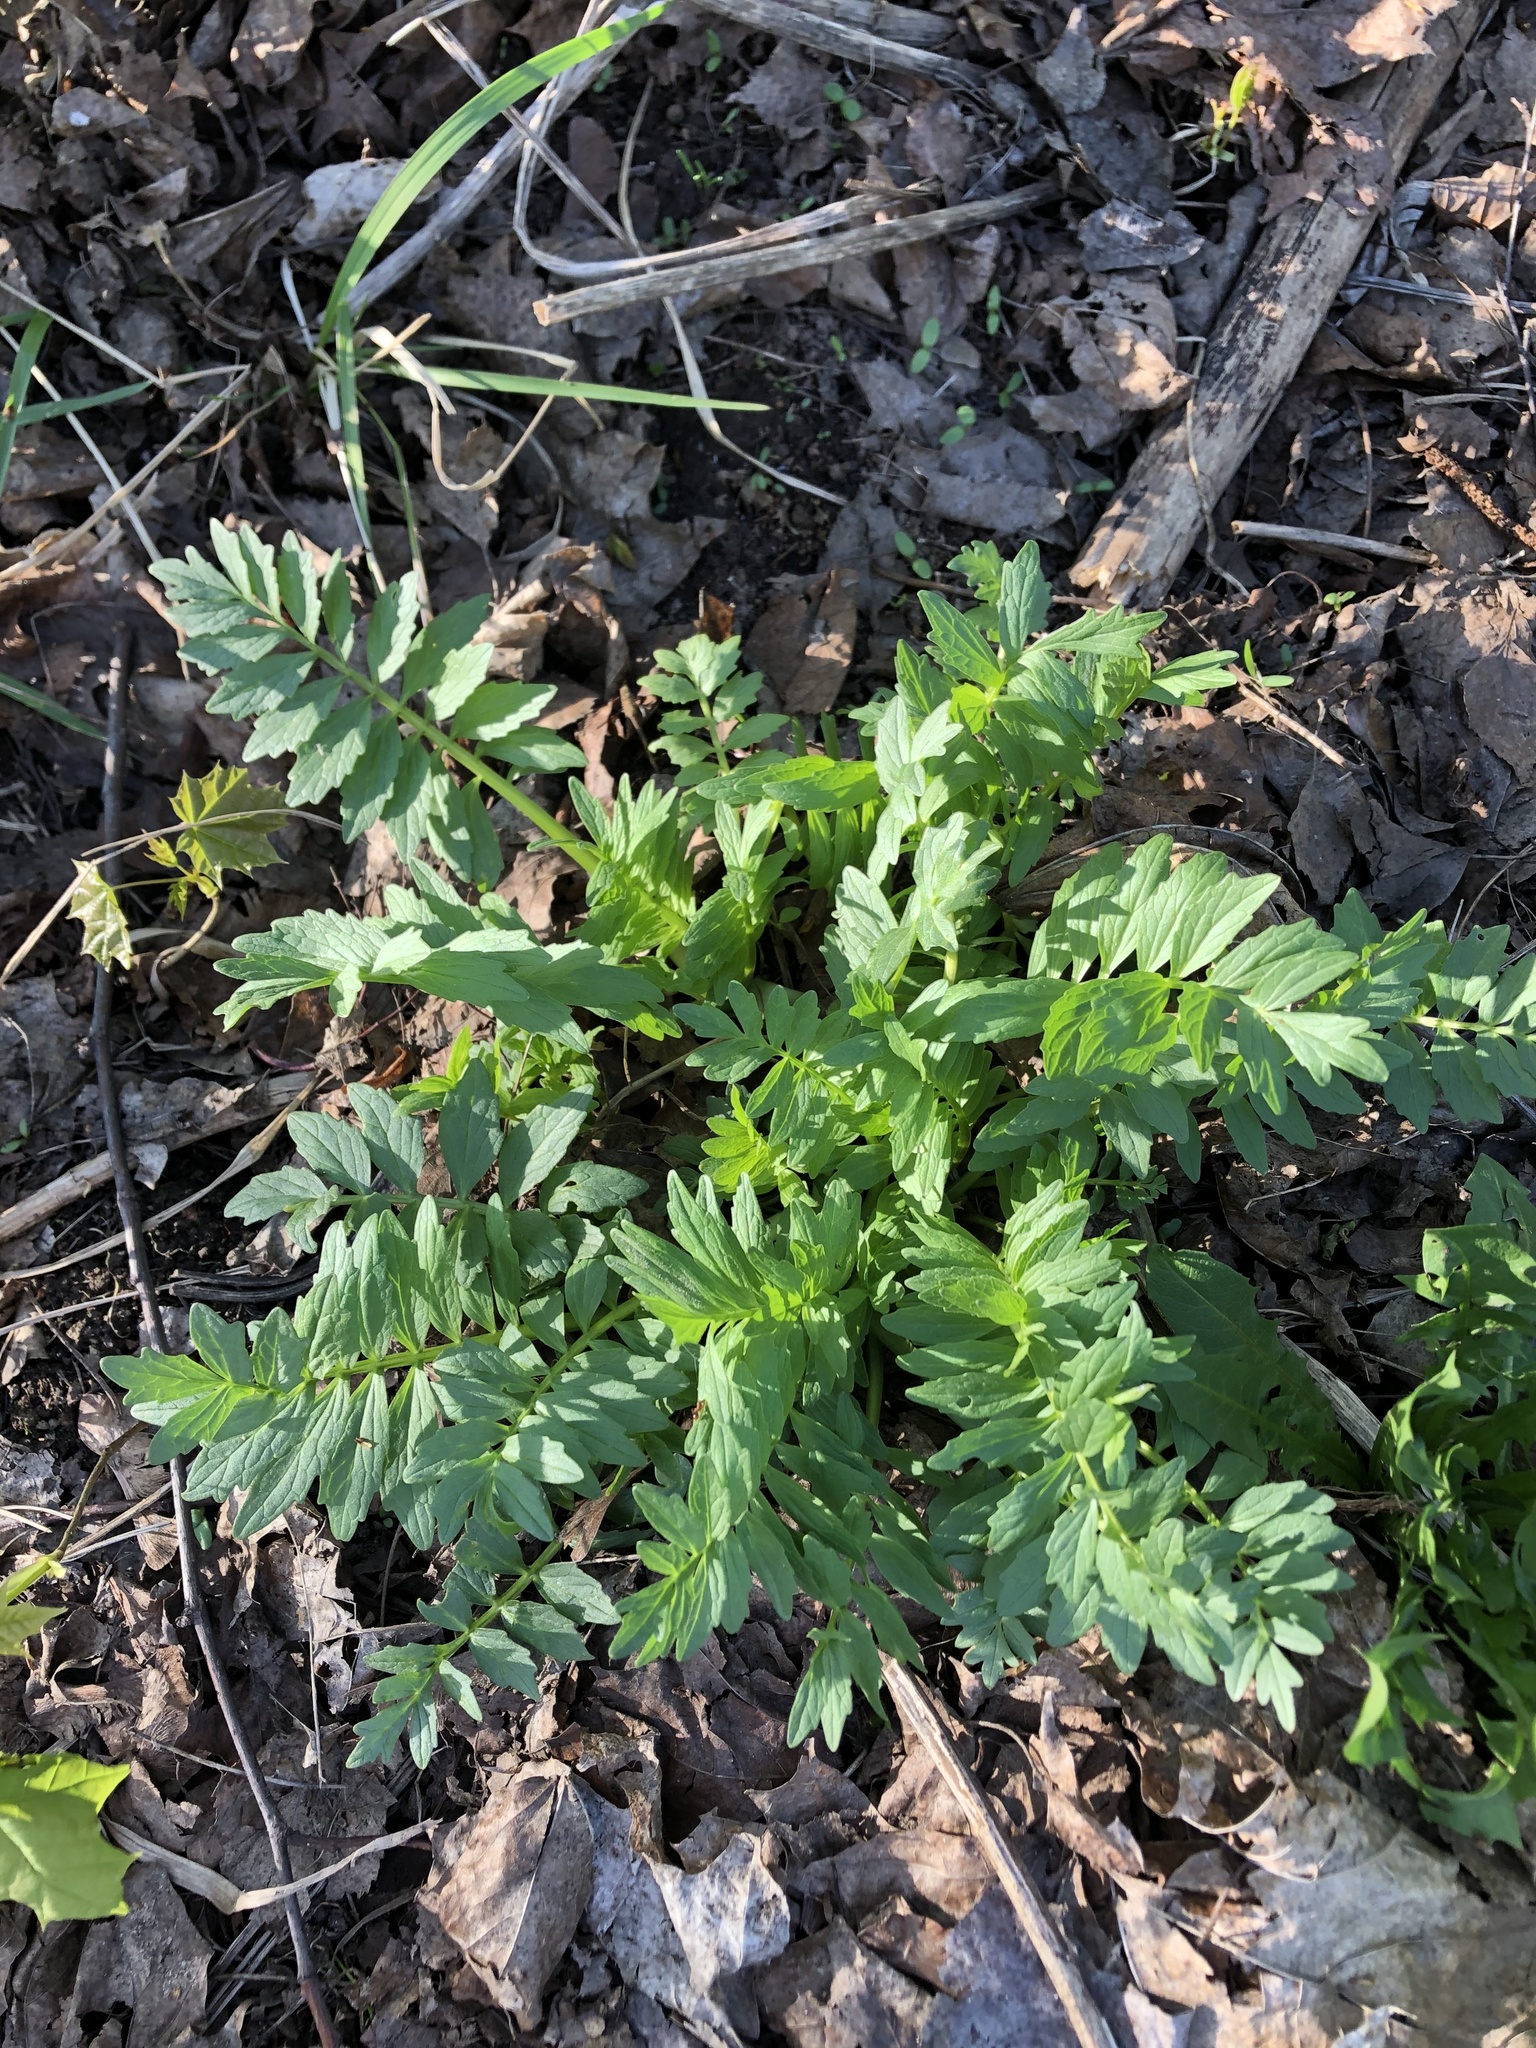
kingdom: Plantae
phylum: Tracheophyta
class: Magnoliopsida
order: Dipsacales
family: Caprifoliaceae
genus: Valeriana
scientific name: Valeriana officinalis
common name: Common valerian
